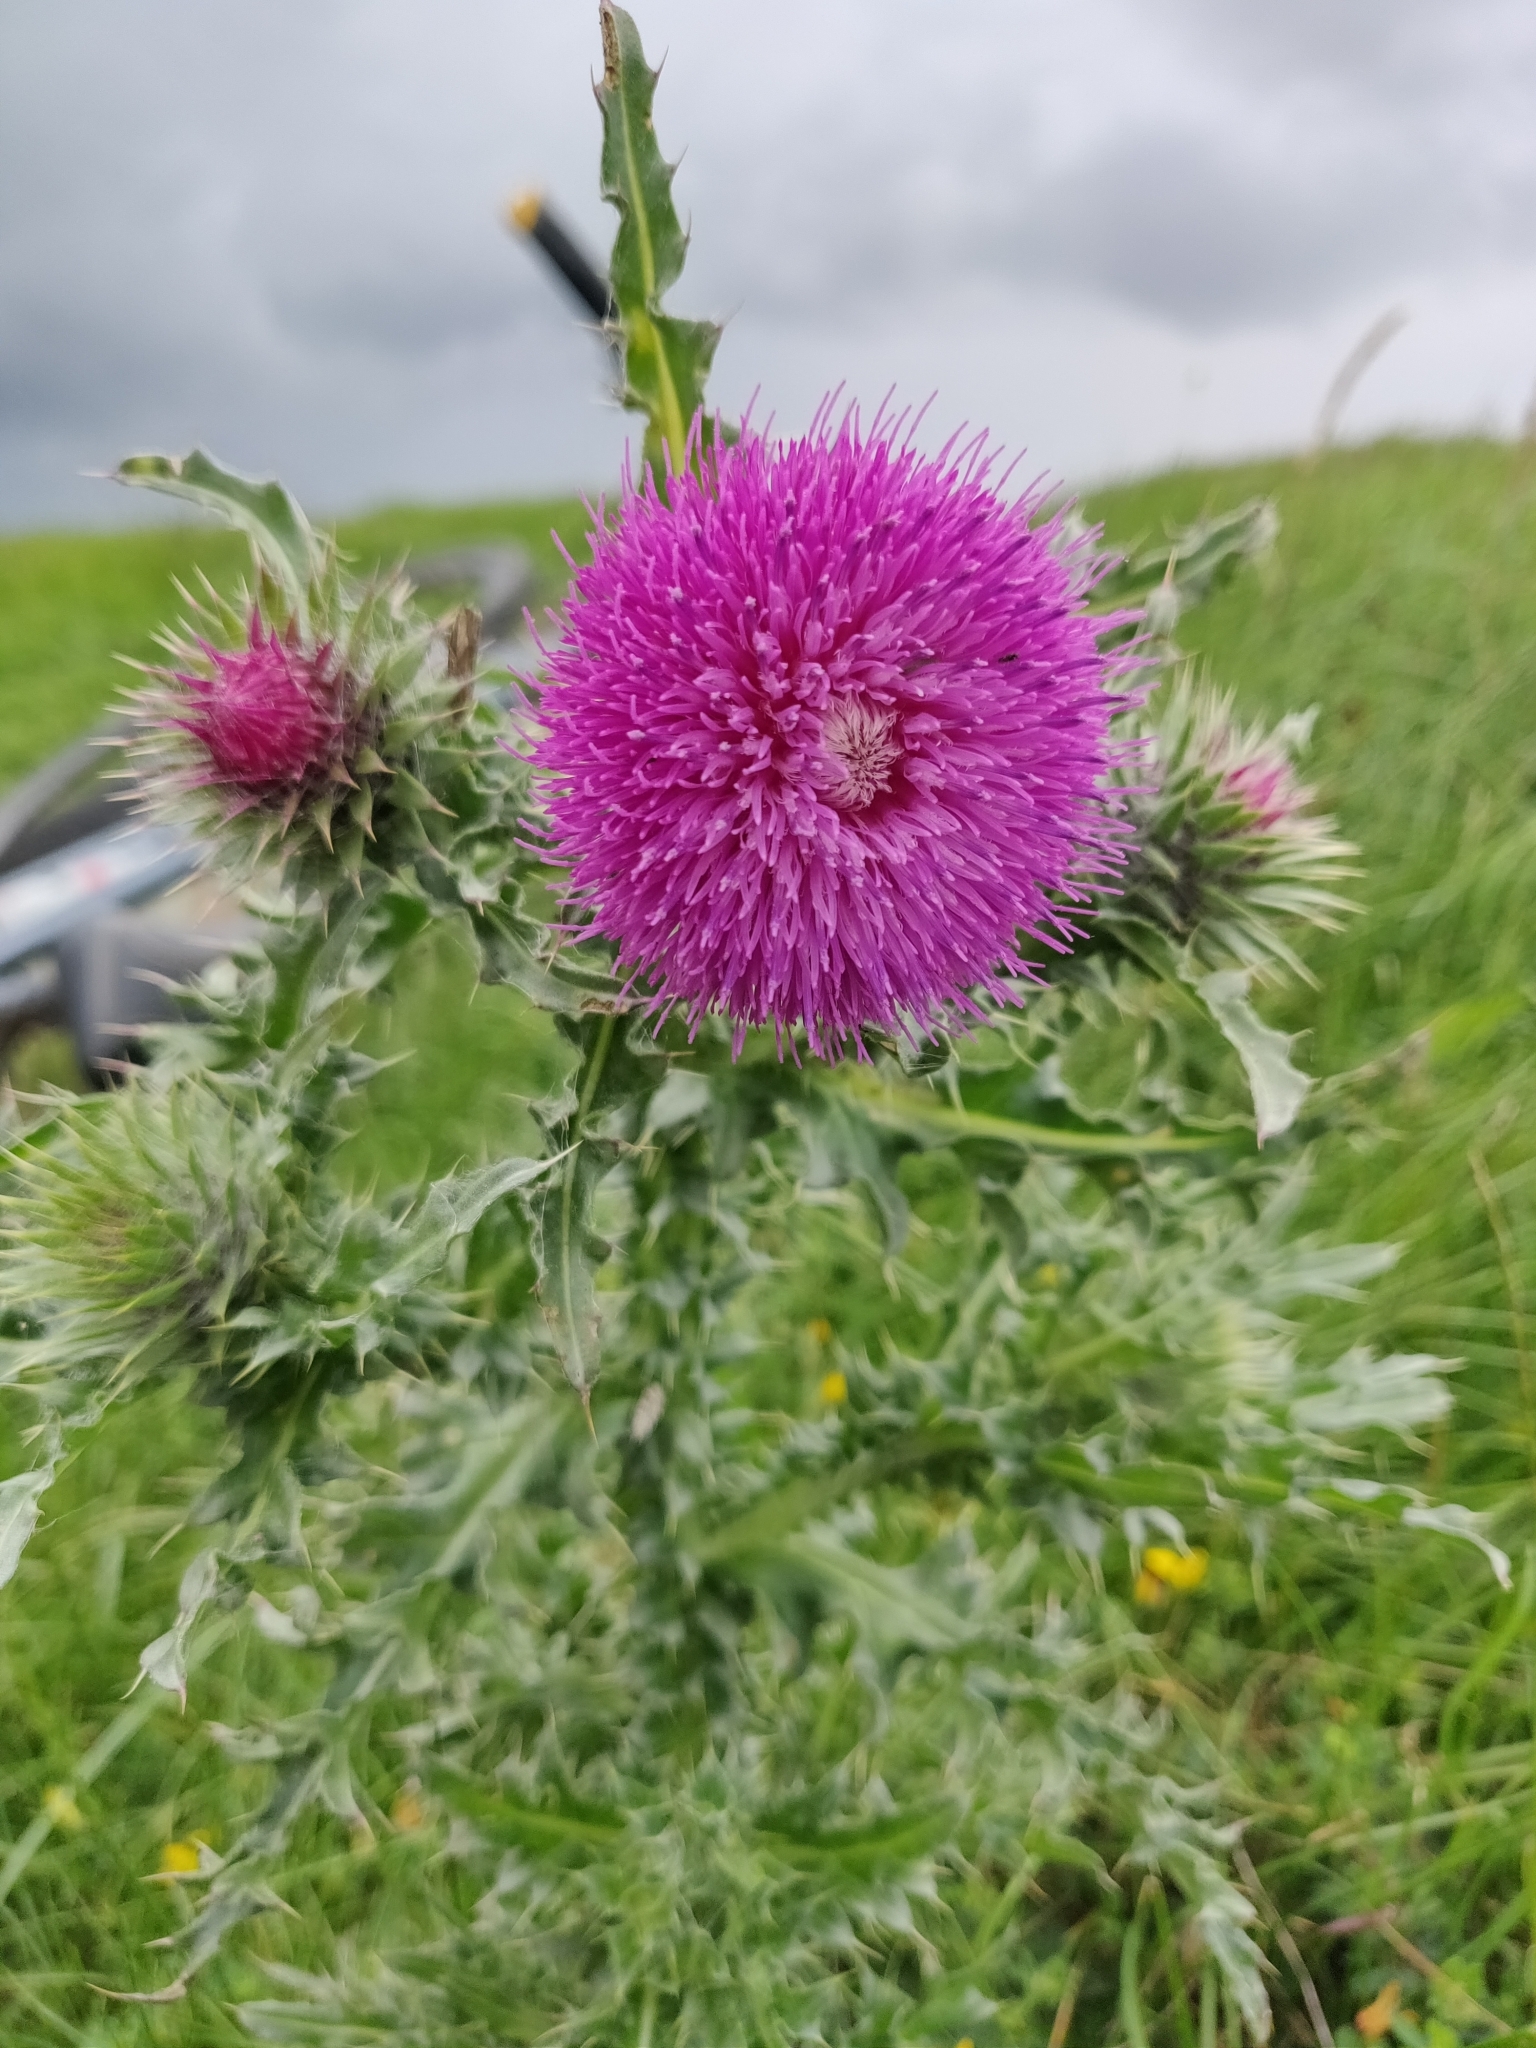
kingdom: Plantae
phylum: Tracheophyta
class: Magnoliopsida
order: Asterales
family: Asteraceae
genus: Carduus
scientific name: Carduus nutans
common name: Musk thistle
